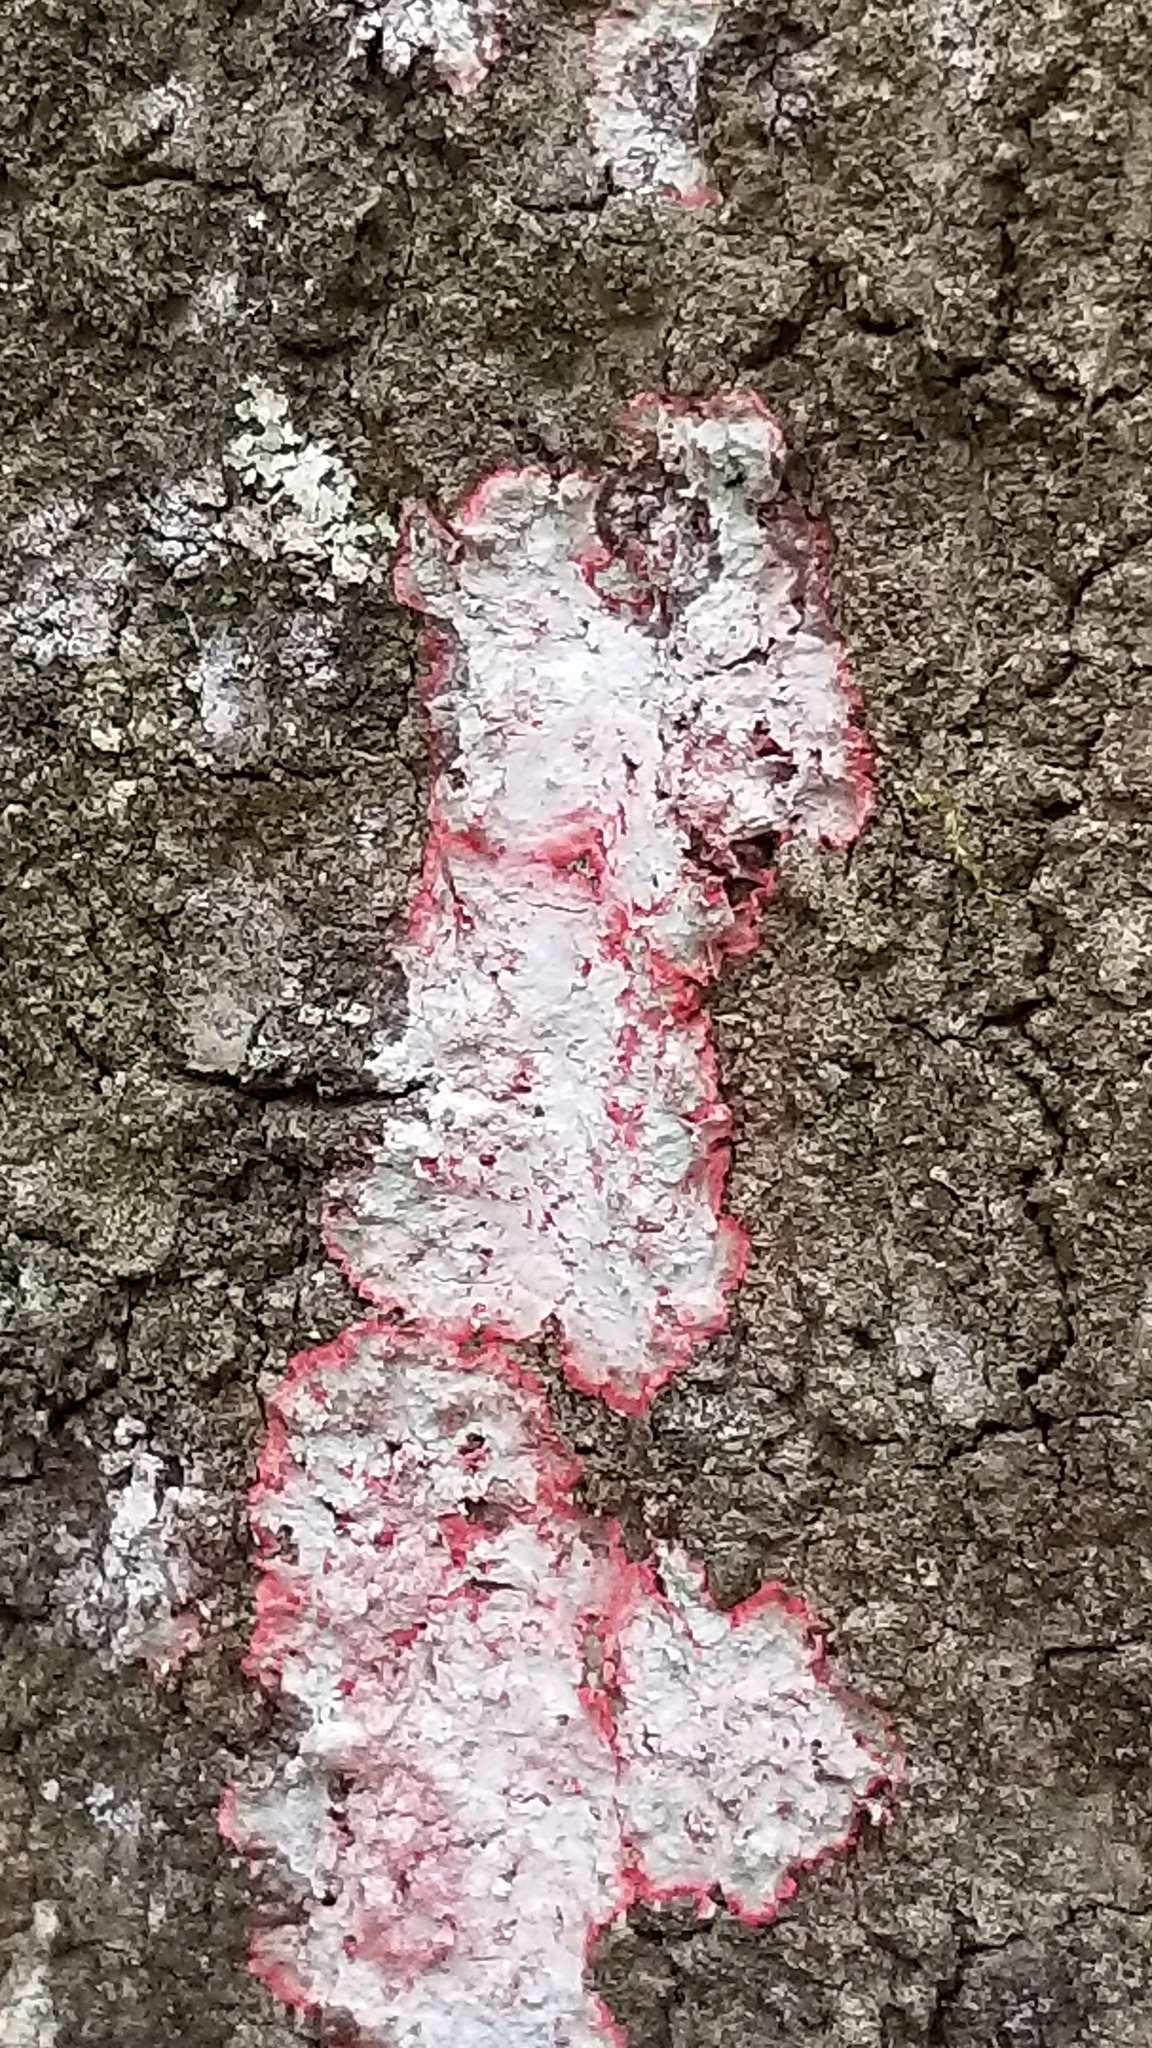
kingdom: Fungi
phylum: Ascomycota
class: Arthoniomycetes
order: Arthoniales
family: Arthoniaceae
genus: Herpothallon
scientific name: Herpothallon rubrocinctum
